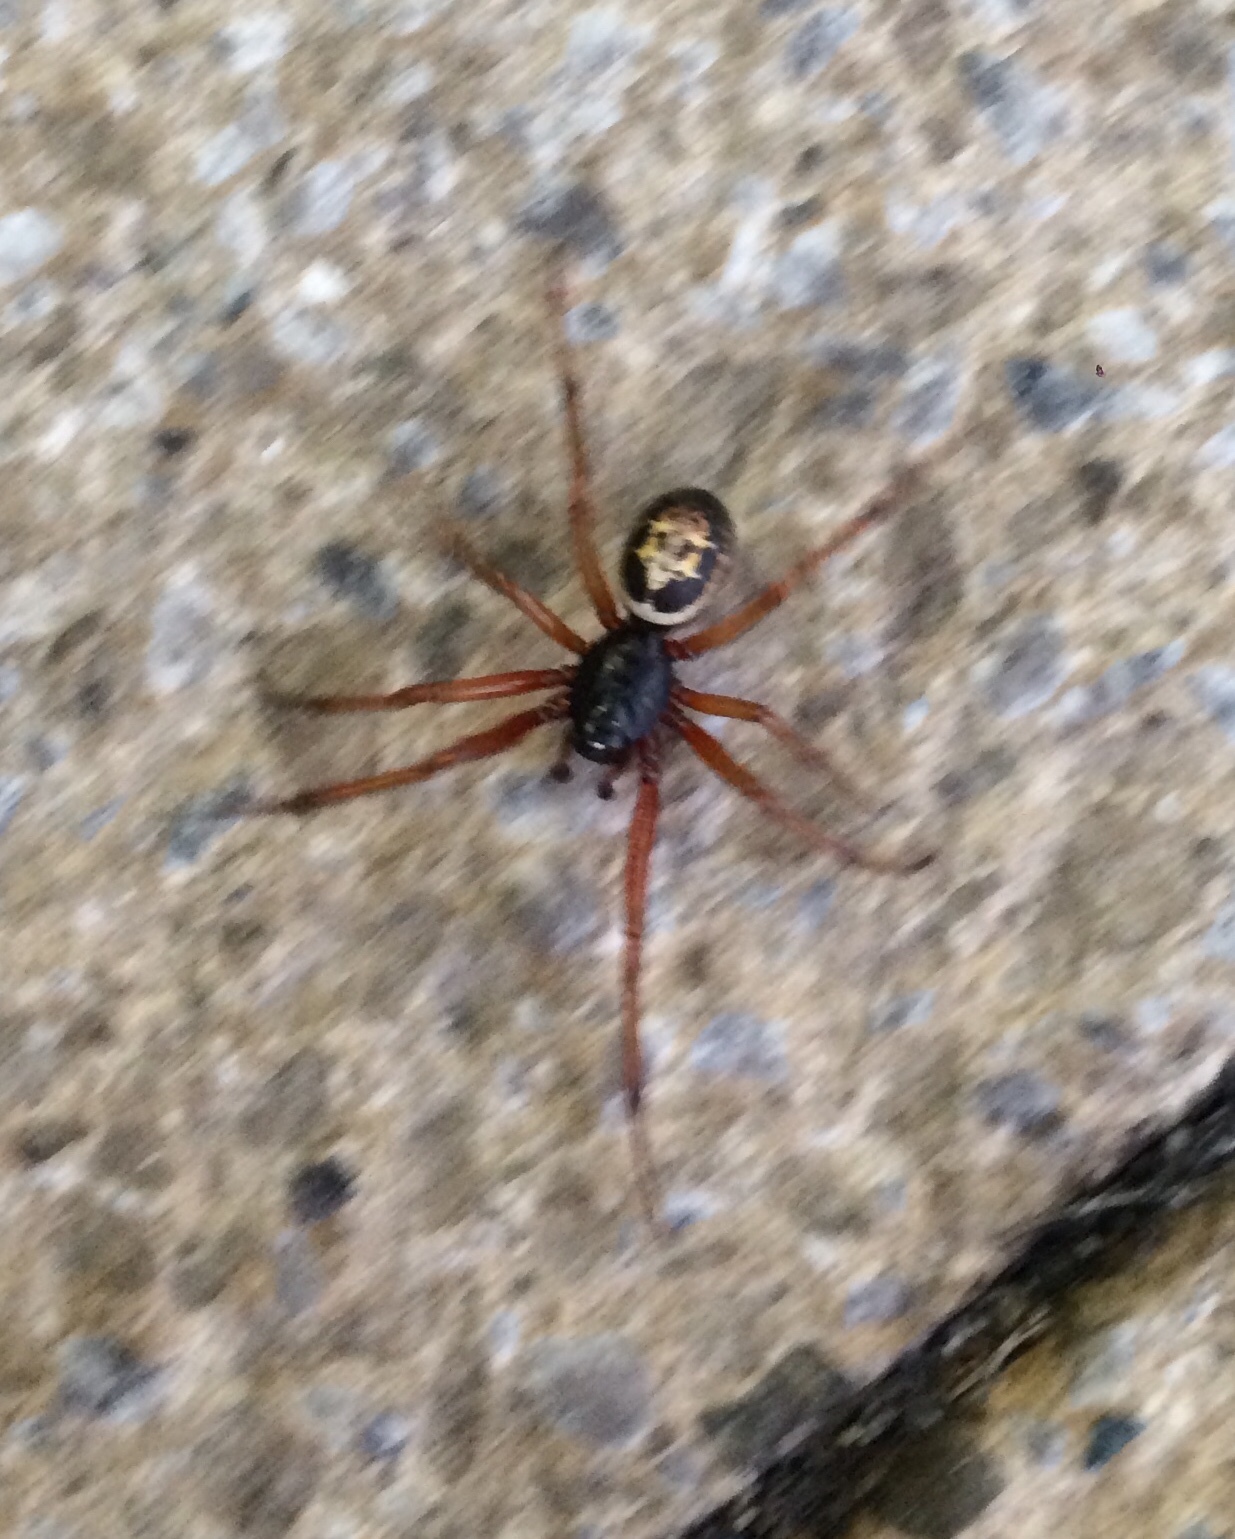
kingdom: Animalia
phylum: Arthropoda
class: Arachnida
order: Araneae
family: Theridiidae
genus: Steatoda
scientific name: Steatoda nobilis
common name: Cobweb weaver
